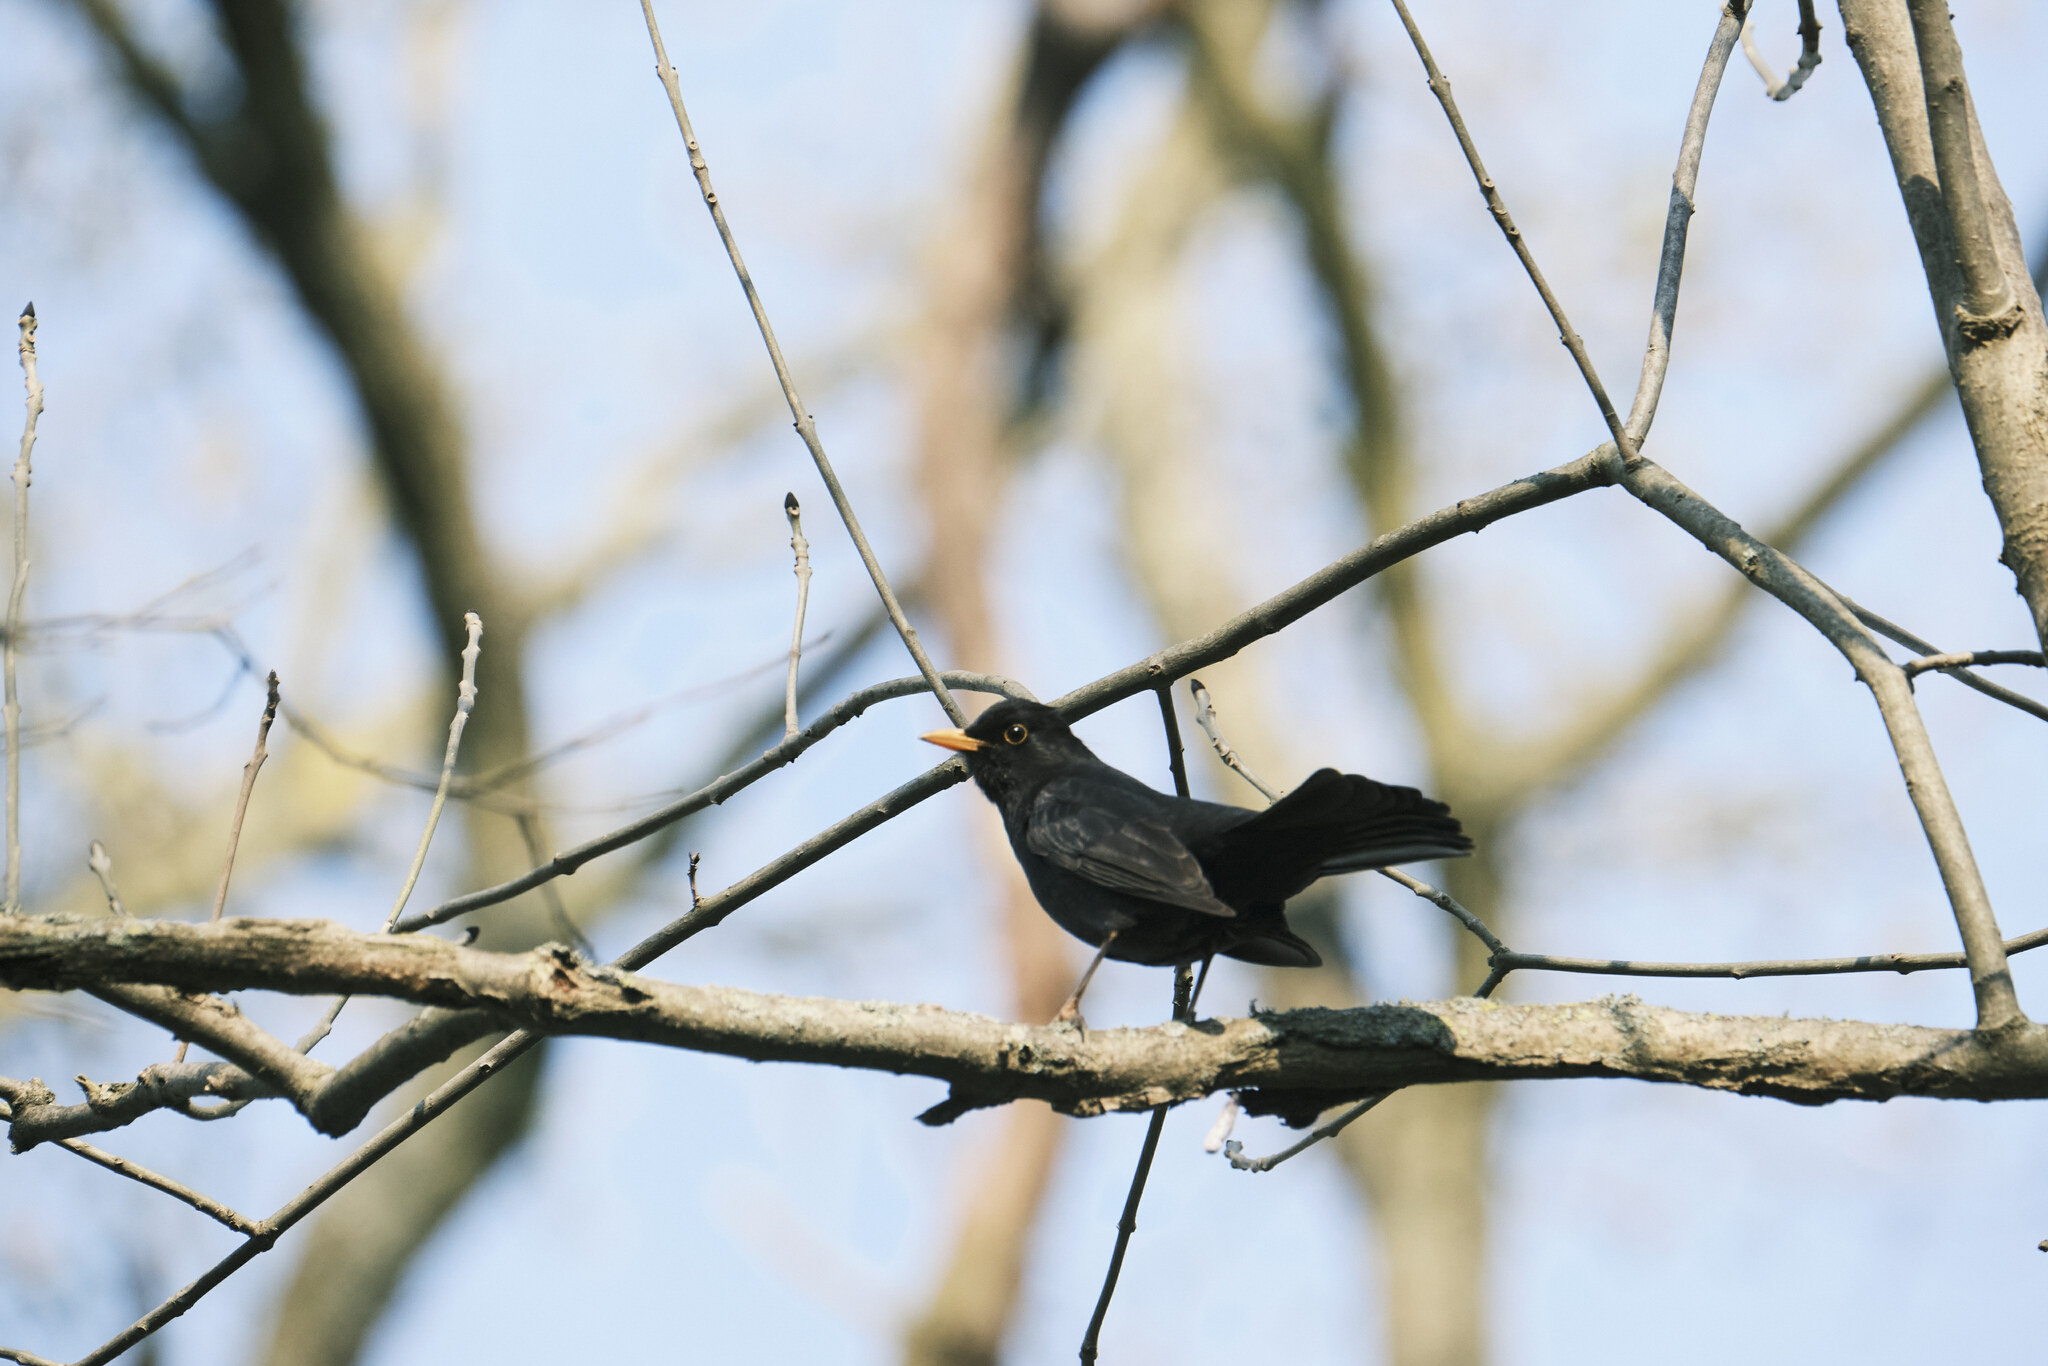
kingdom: Animalia
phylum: Chordata
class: Aves
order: Passeriformes
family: Turdidae
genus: Turdus
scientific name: Turdus merula
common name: Common blackbird
